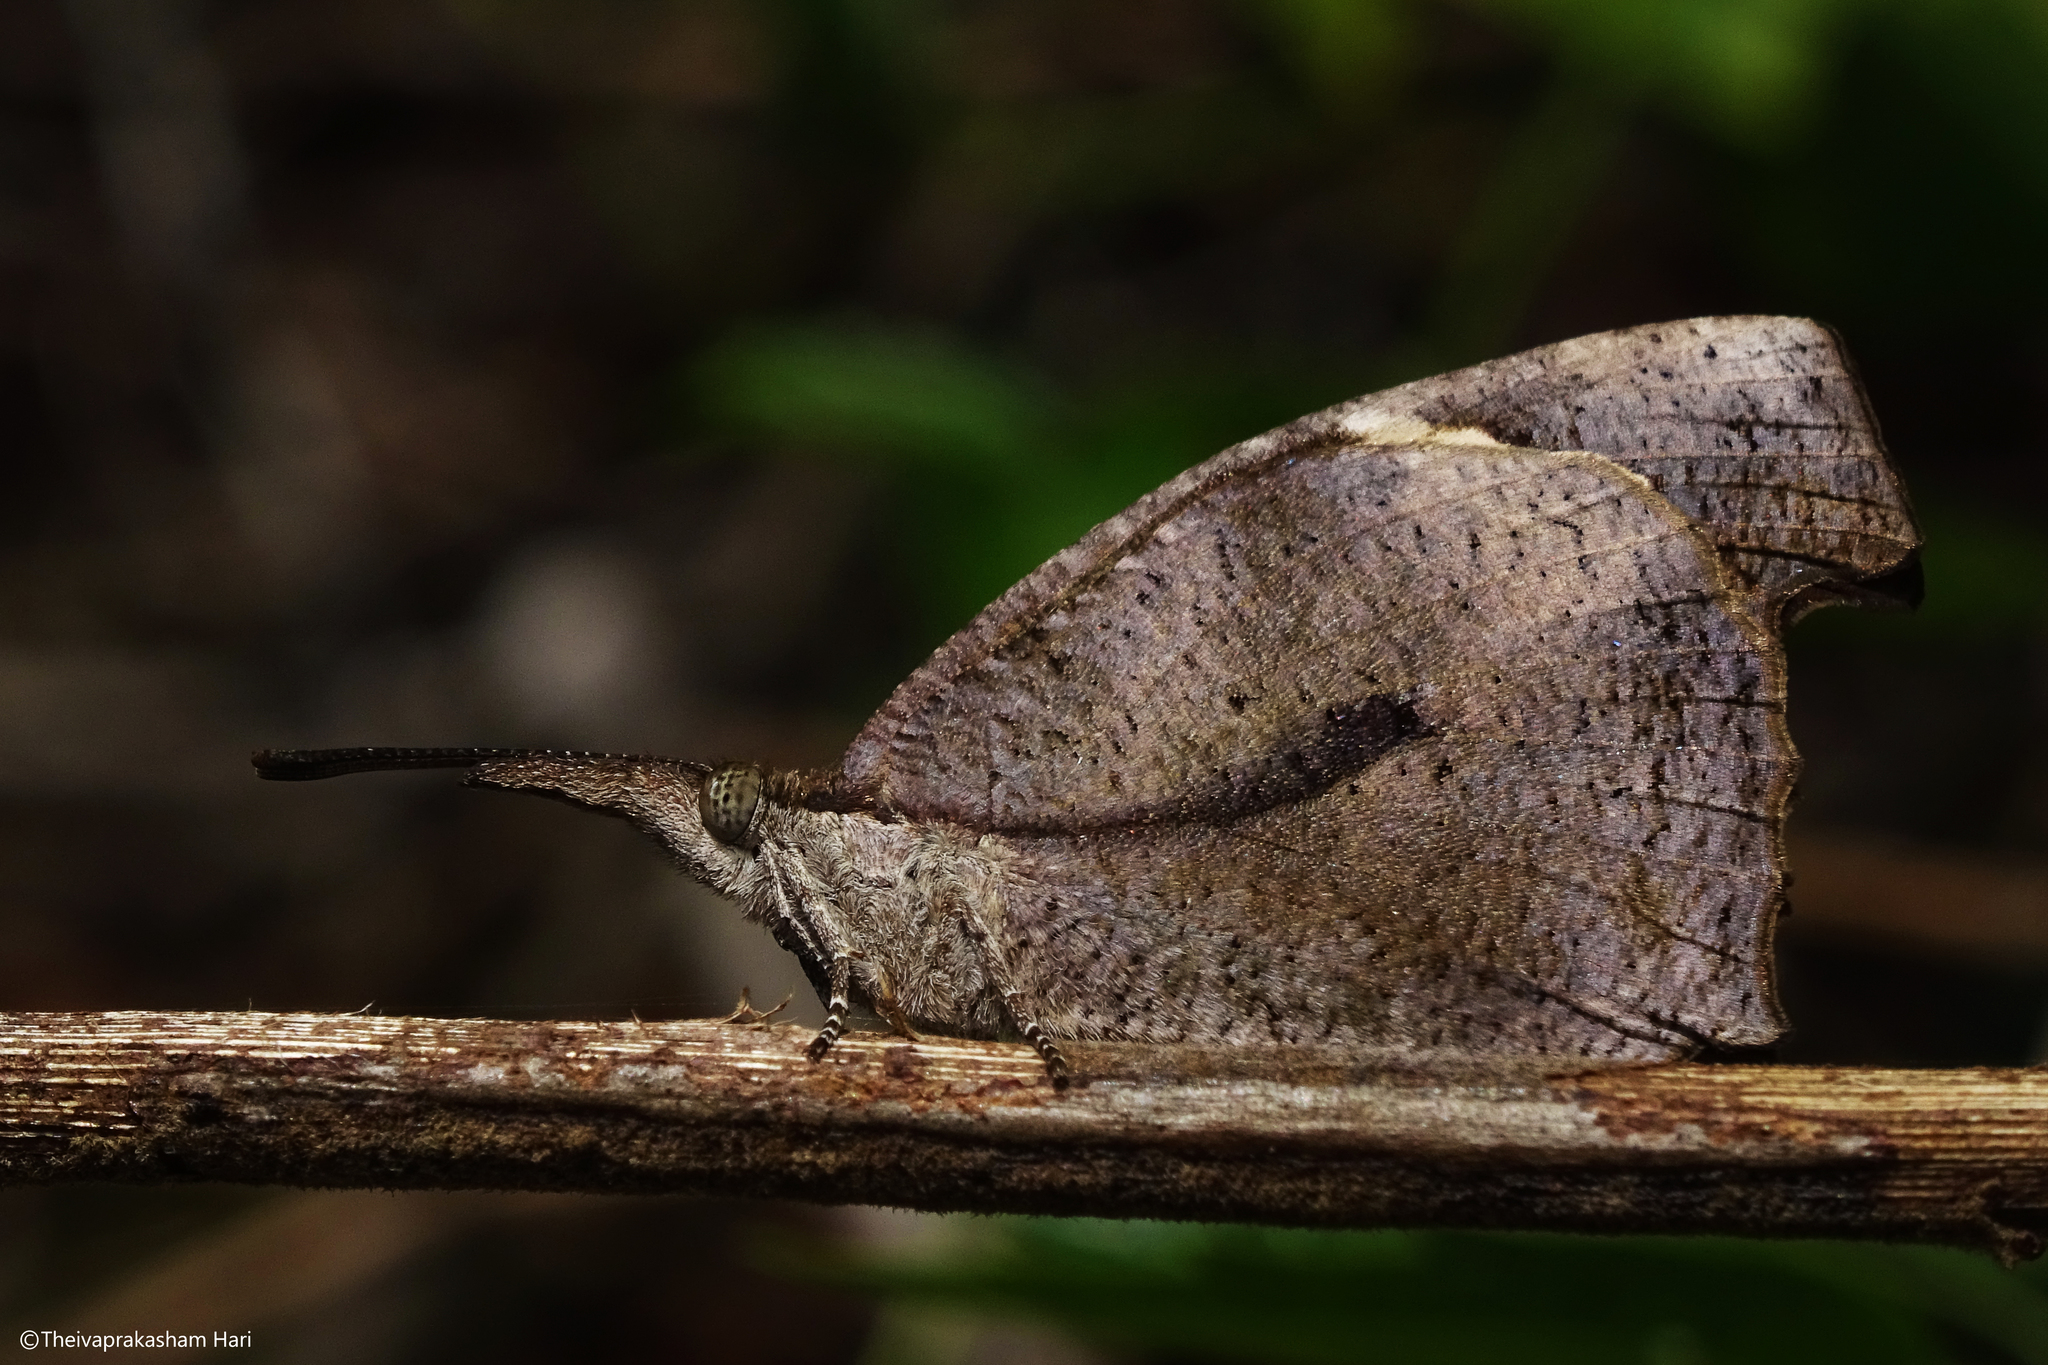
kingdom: Animalia
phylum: Arthropoda
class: Insecta
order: Lepidoptera
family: Nymphalidae
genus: Libythea
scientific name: Libythea laius
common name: African snout
